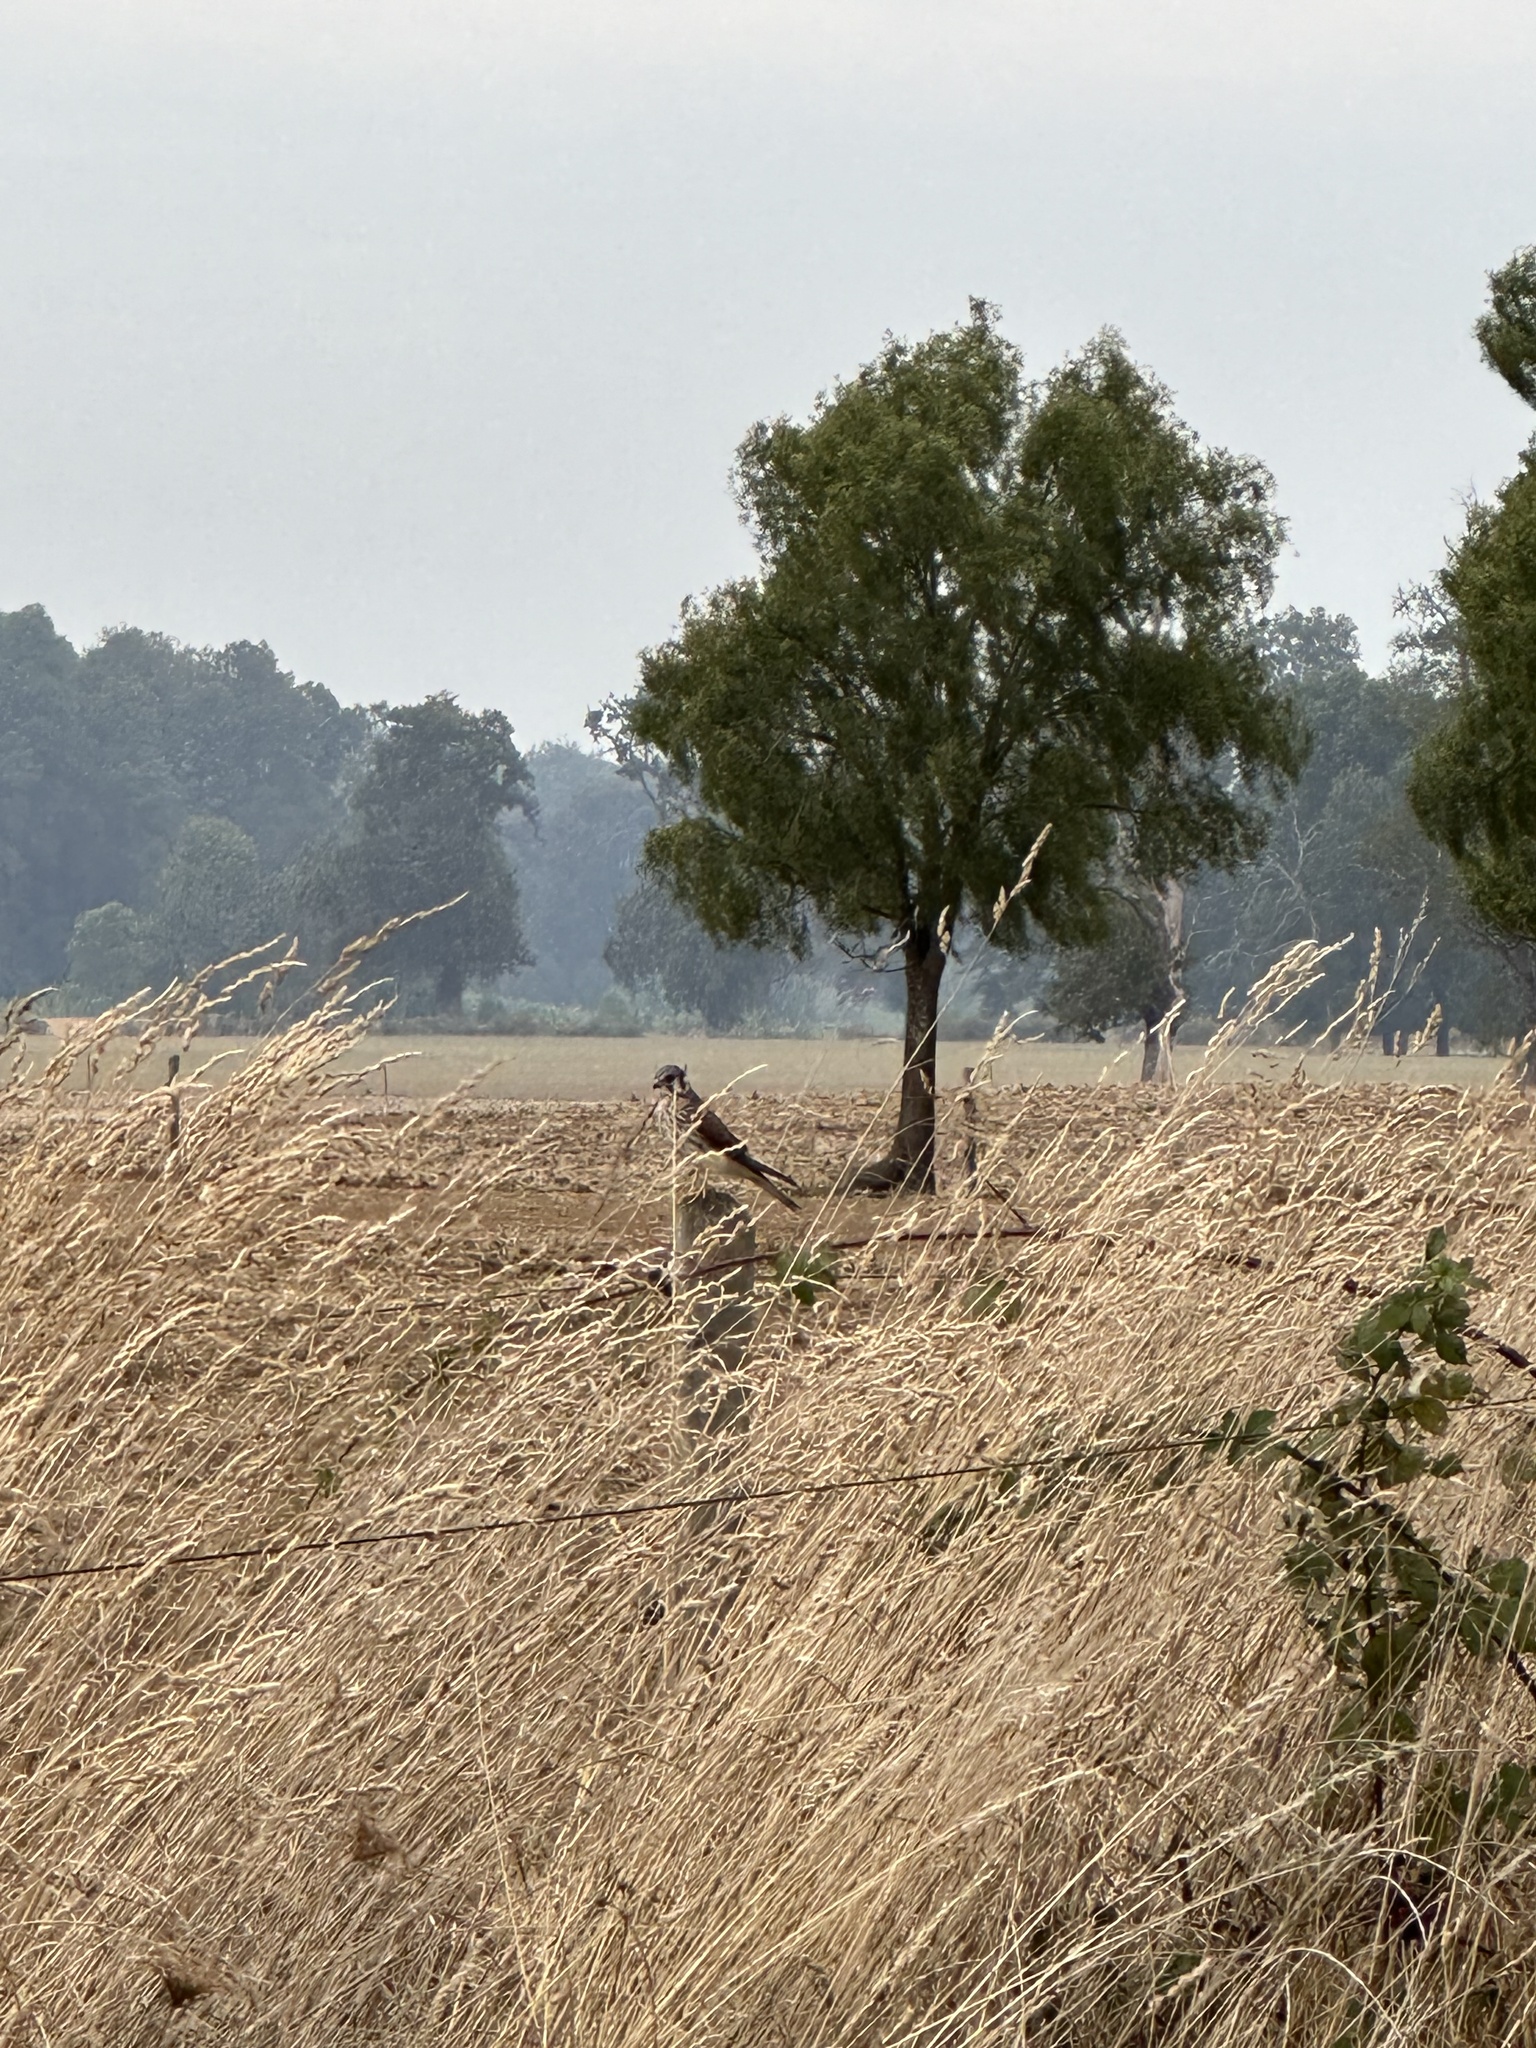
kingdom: Animalia
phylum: Chordata
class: Aves
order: Falconiformes
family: Falconidae
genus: Falco
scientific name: Falco sparverius
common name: American kestrel
